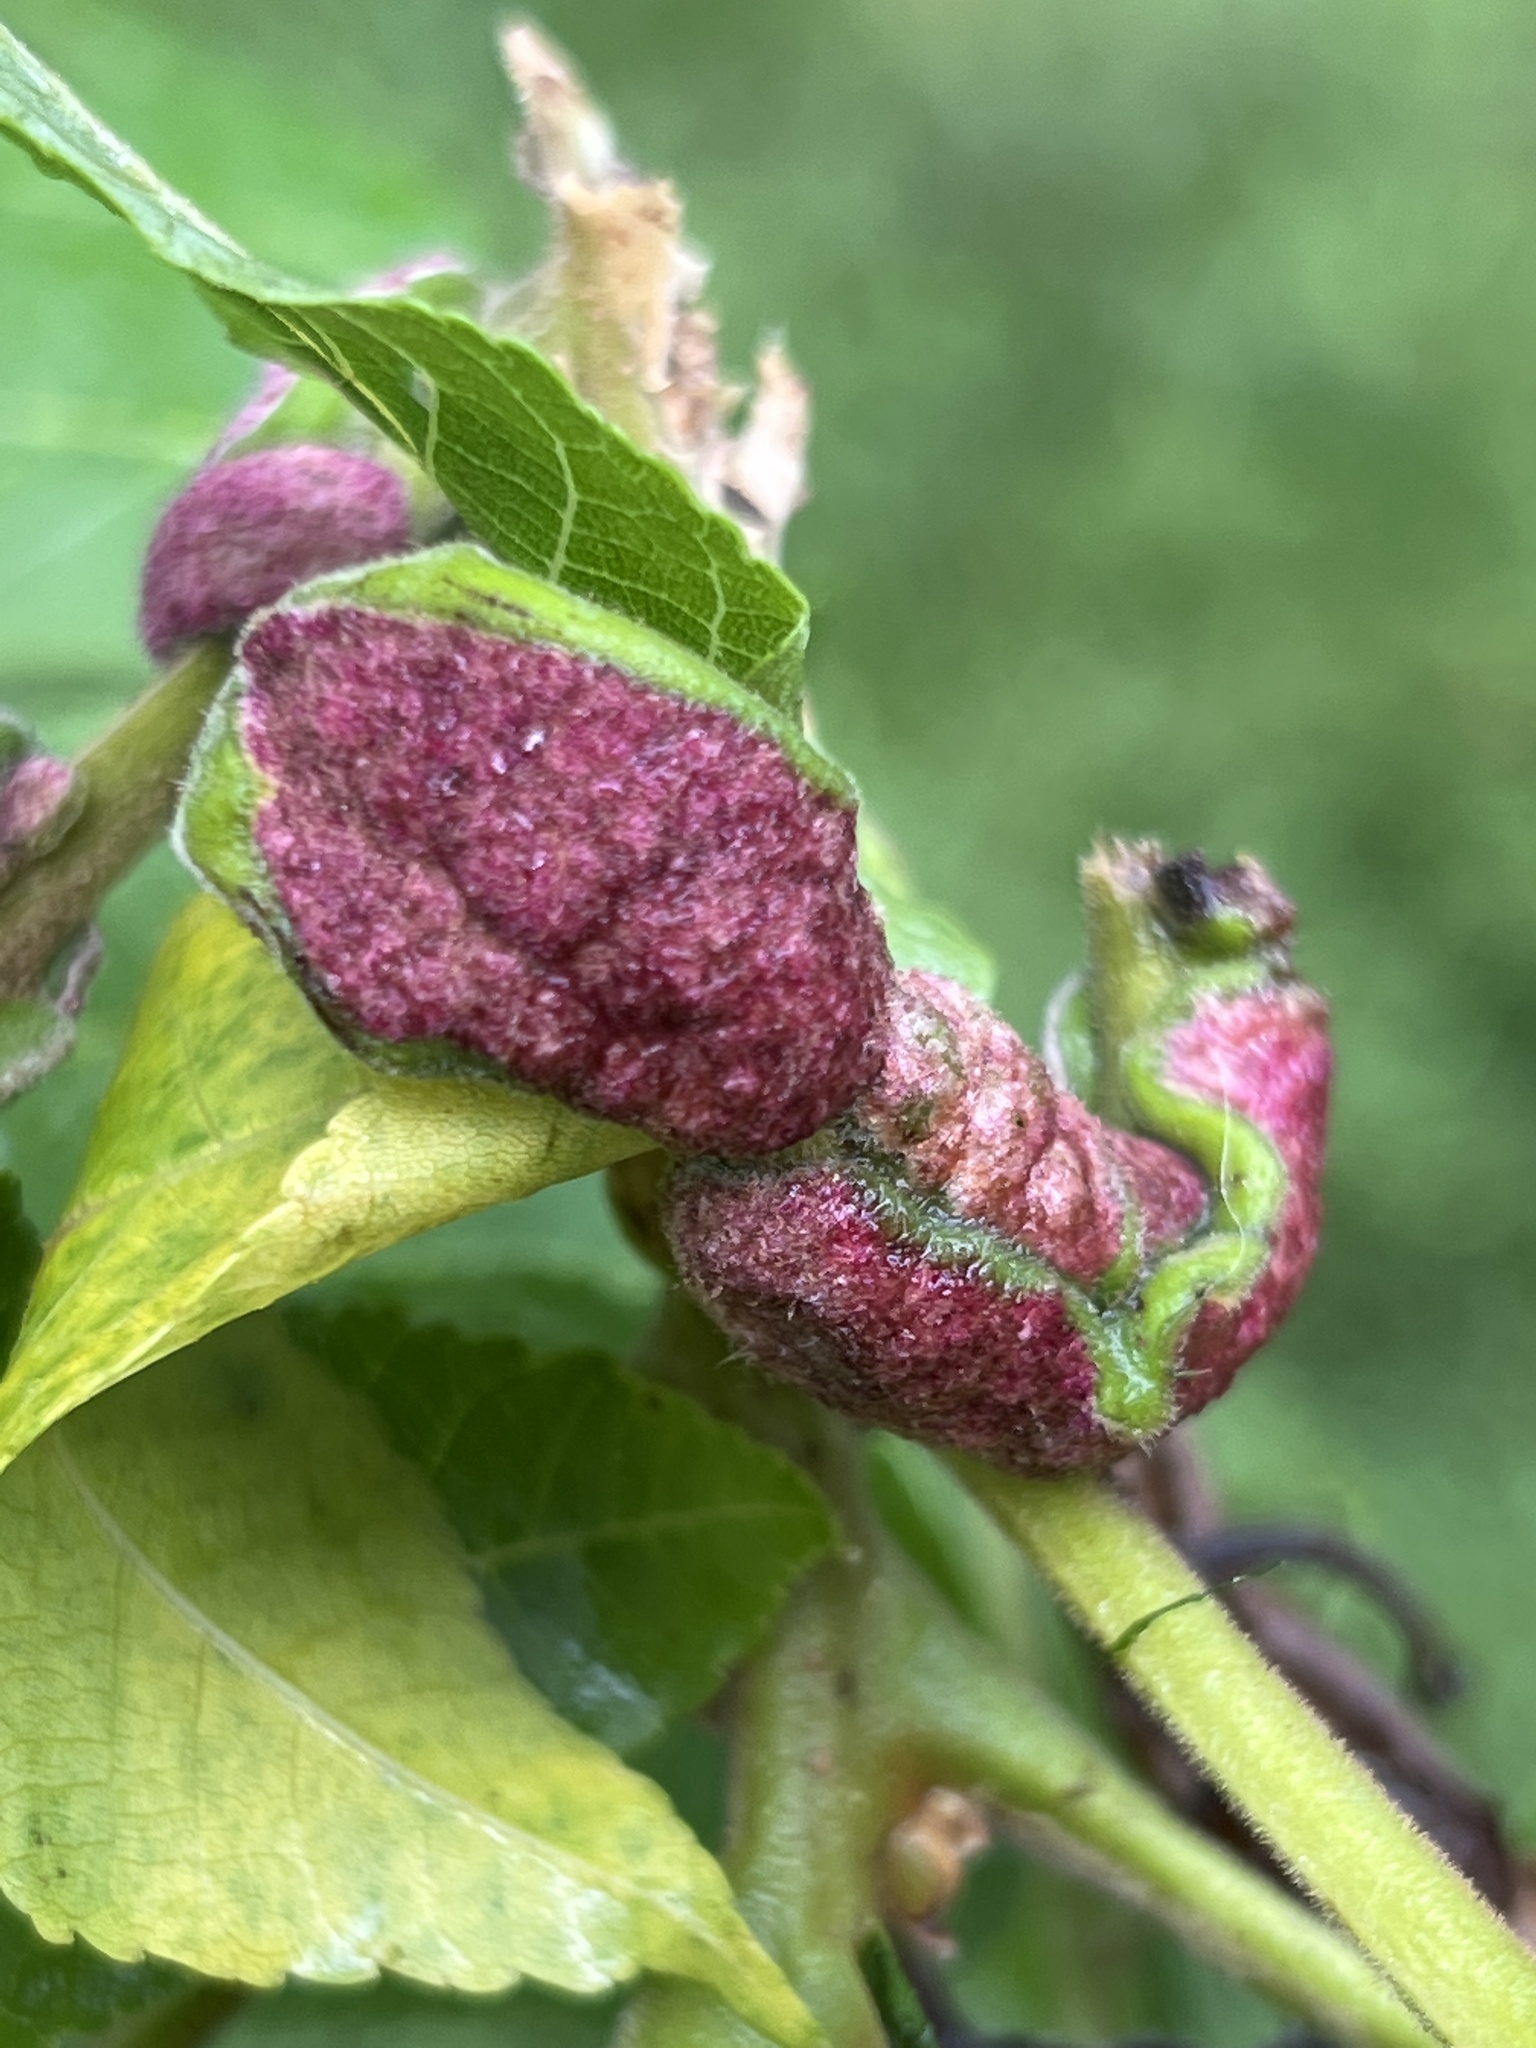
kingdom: Animalia
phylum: Arthropoda
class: Arachnida
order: Trombidiformes
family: Eriophyidae
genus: Aceria
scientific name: Aceria
